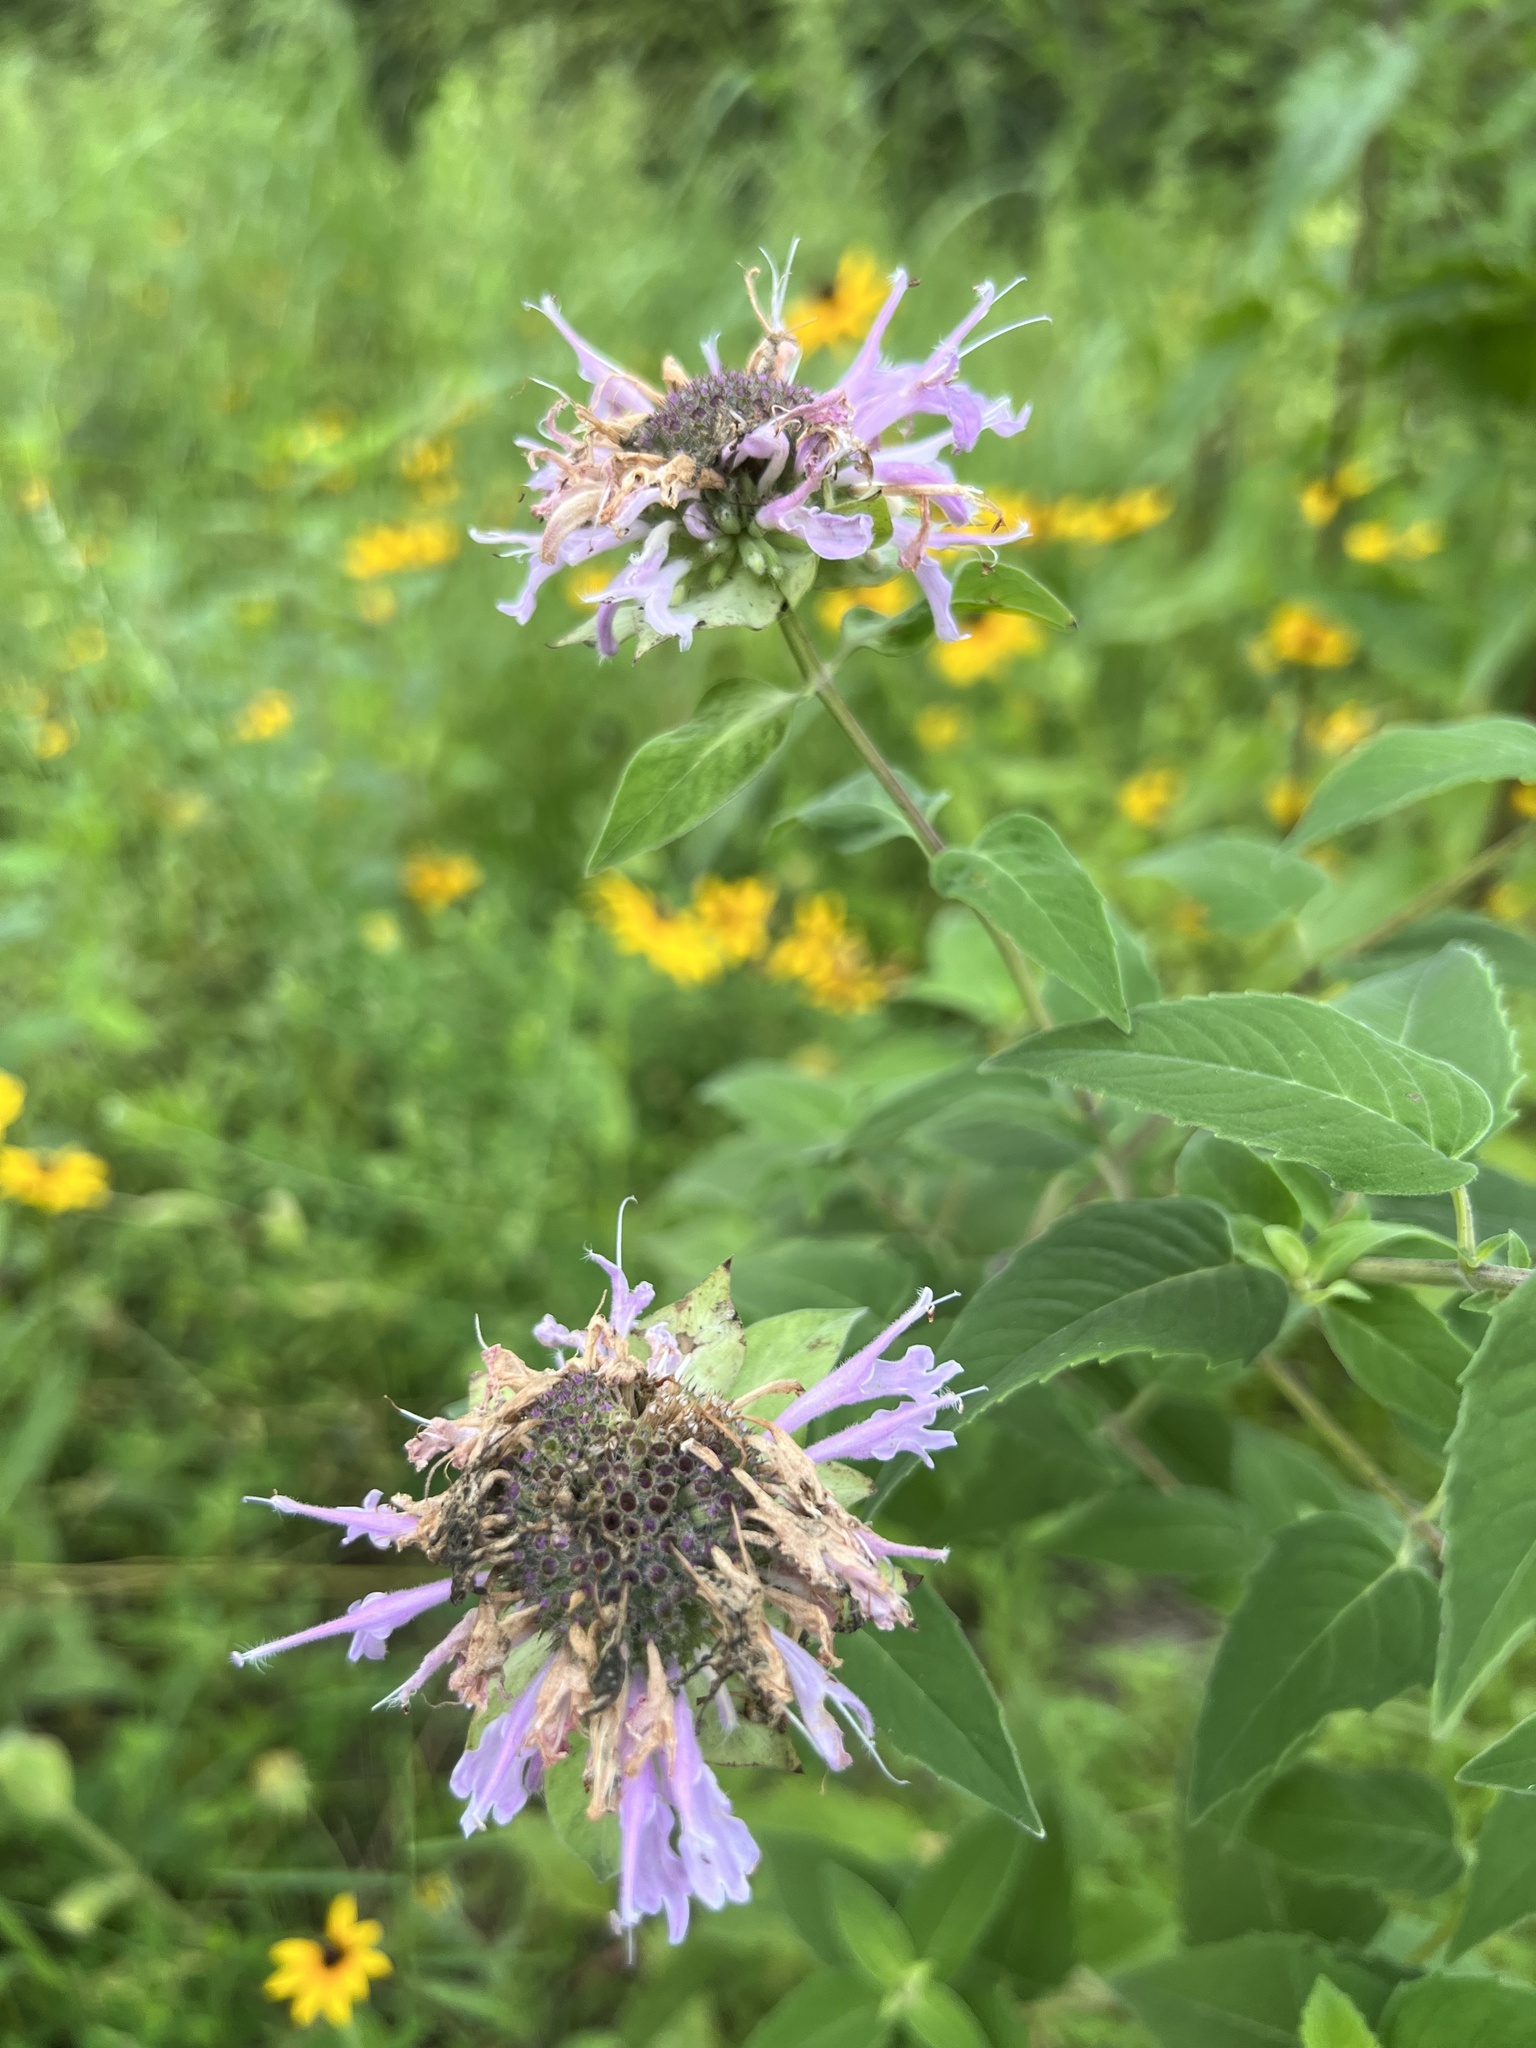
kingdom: Plantae
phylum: Tracheophyta
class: Magnoliopsida
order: Lamiales
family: Lamiaceae
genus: Monarda
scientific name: Monarda fistulosa
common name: Purple beebalm
